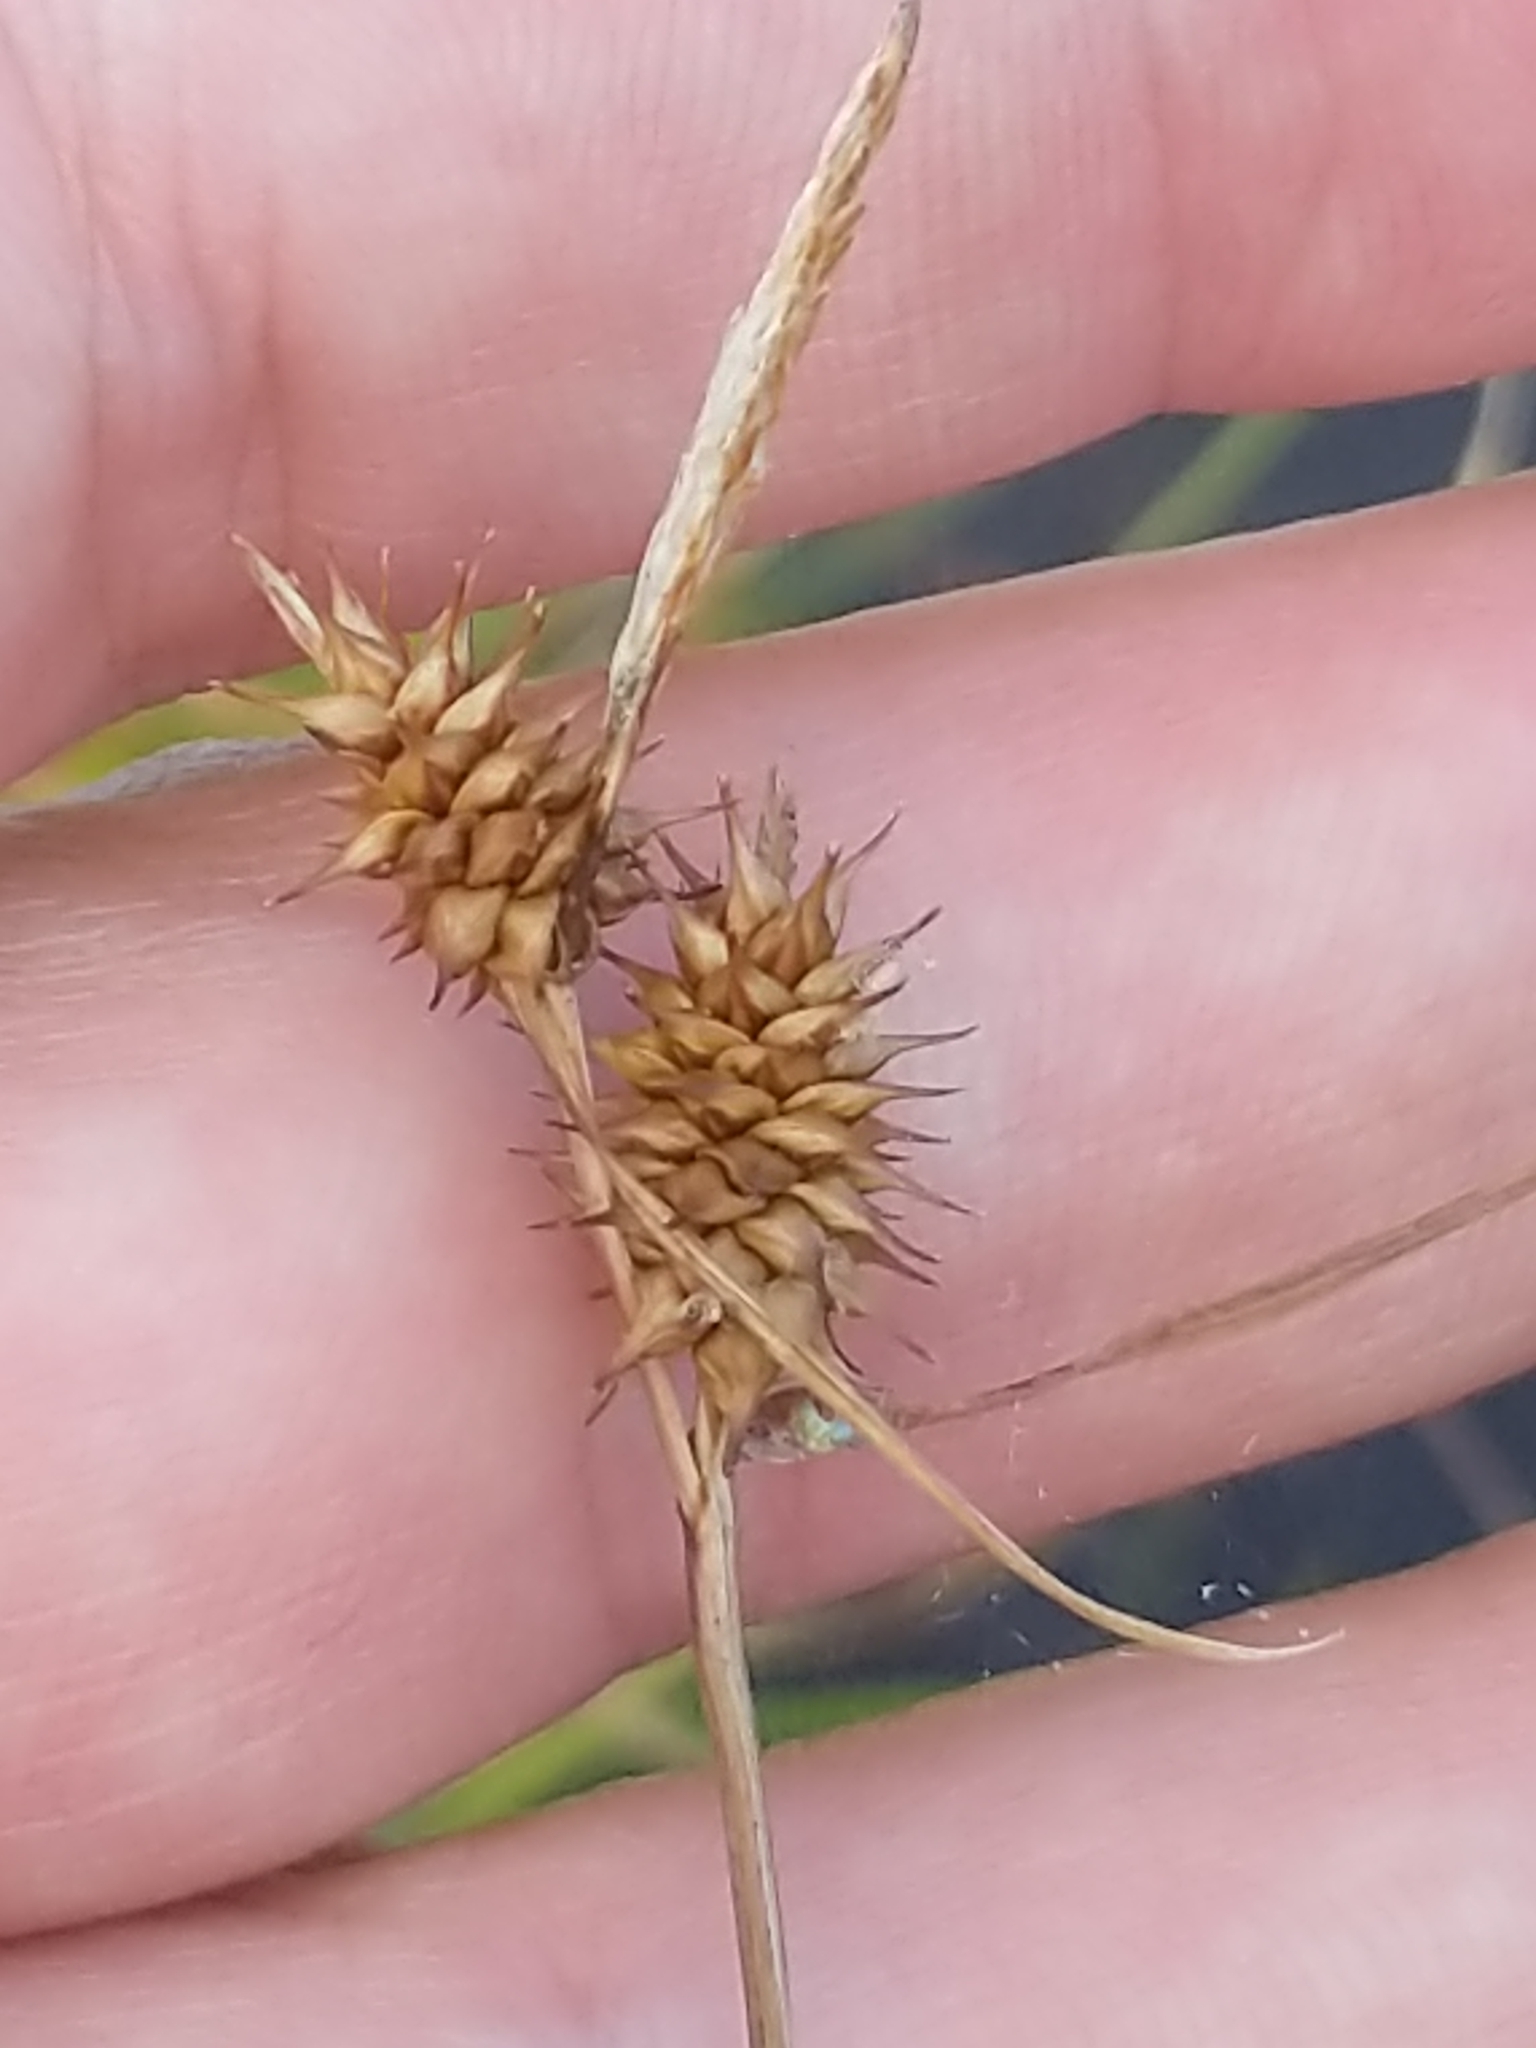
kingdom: Plantae
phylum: Tracheophyta
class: Liliopsida
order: Poales
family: Cyperaceae
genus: Carex
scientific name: Carex flava
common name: Large yellow-sedge
